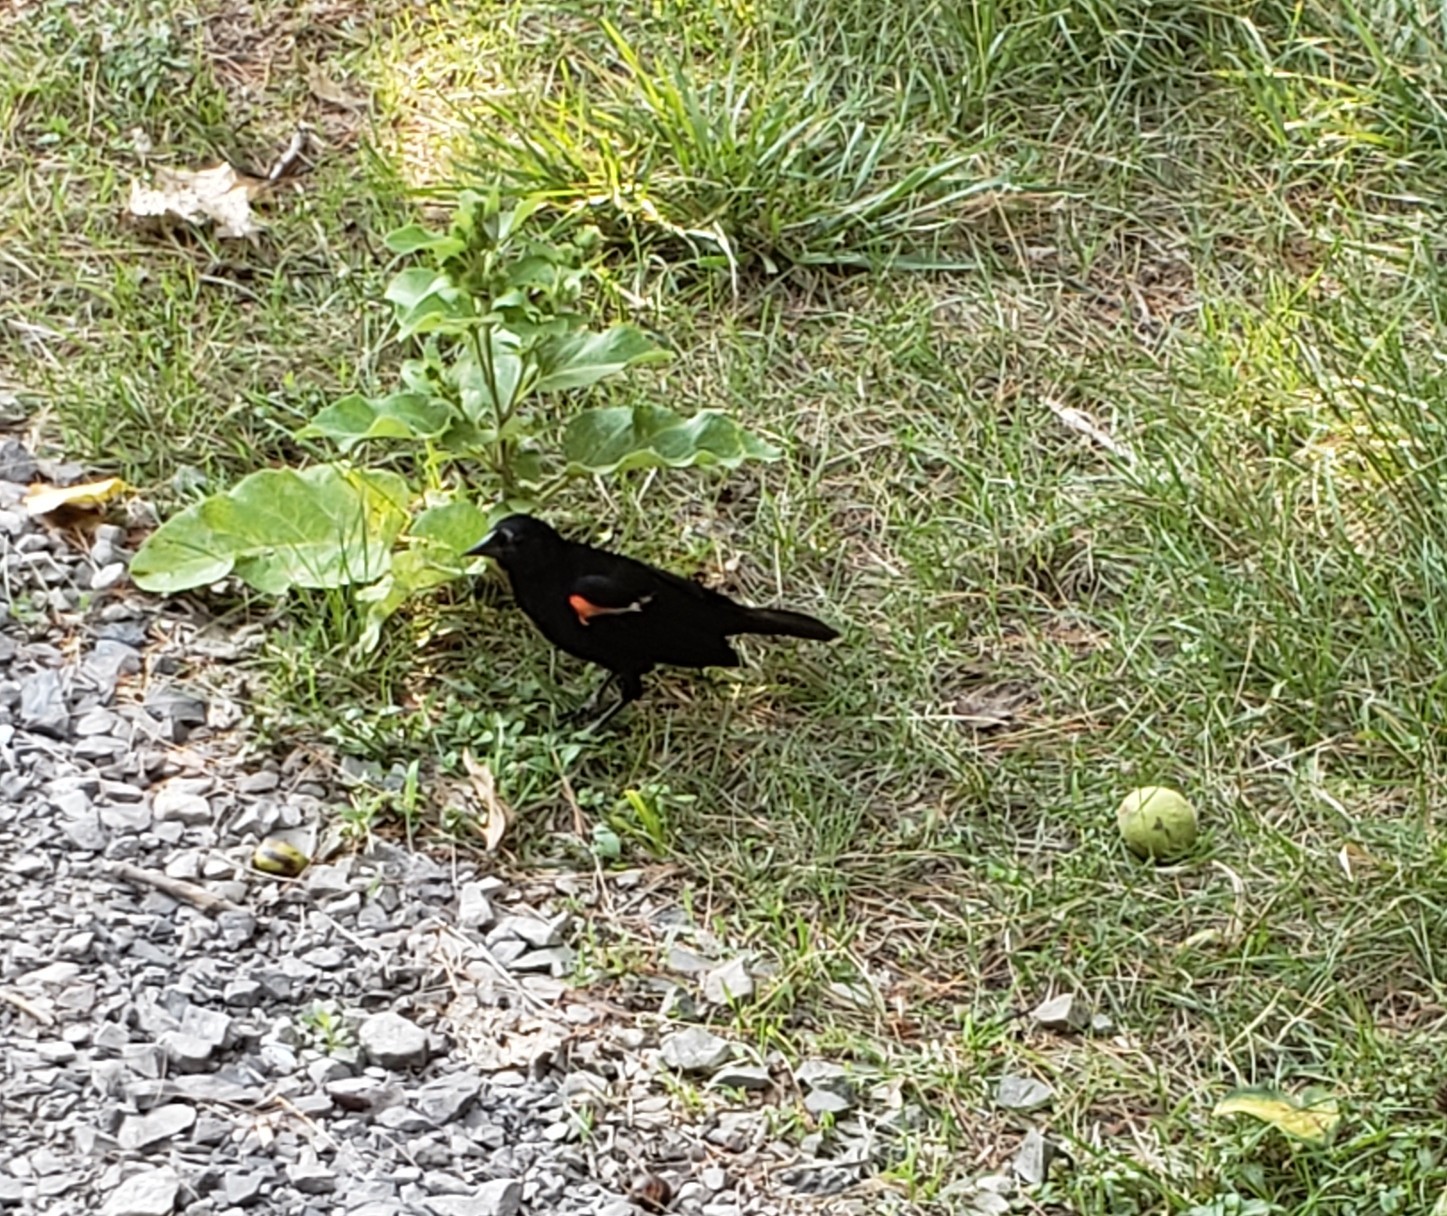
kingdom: Animalia
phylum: Chordata
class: Aves
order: Passeriformes
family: Icteridae
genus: Agelaius
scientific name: Agelaius phoeniceus
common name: Red-winged blackbird
